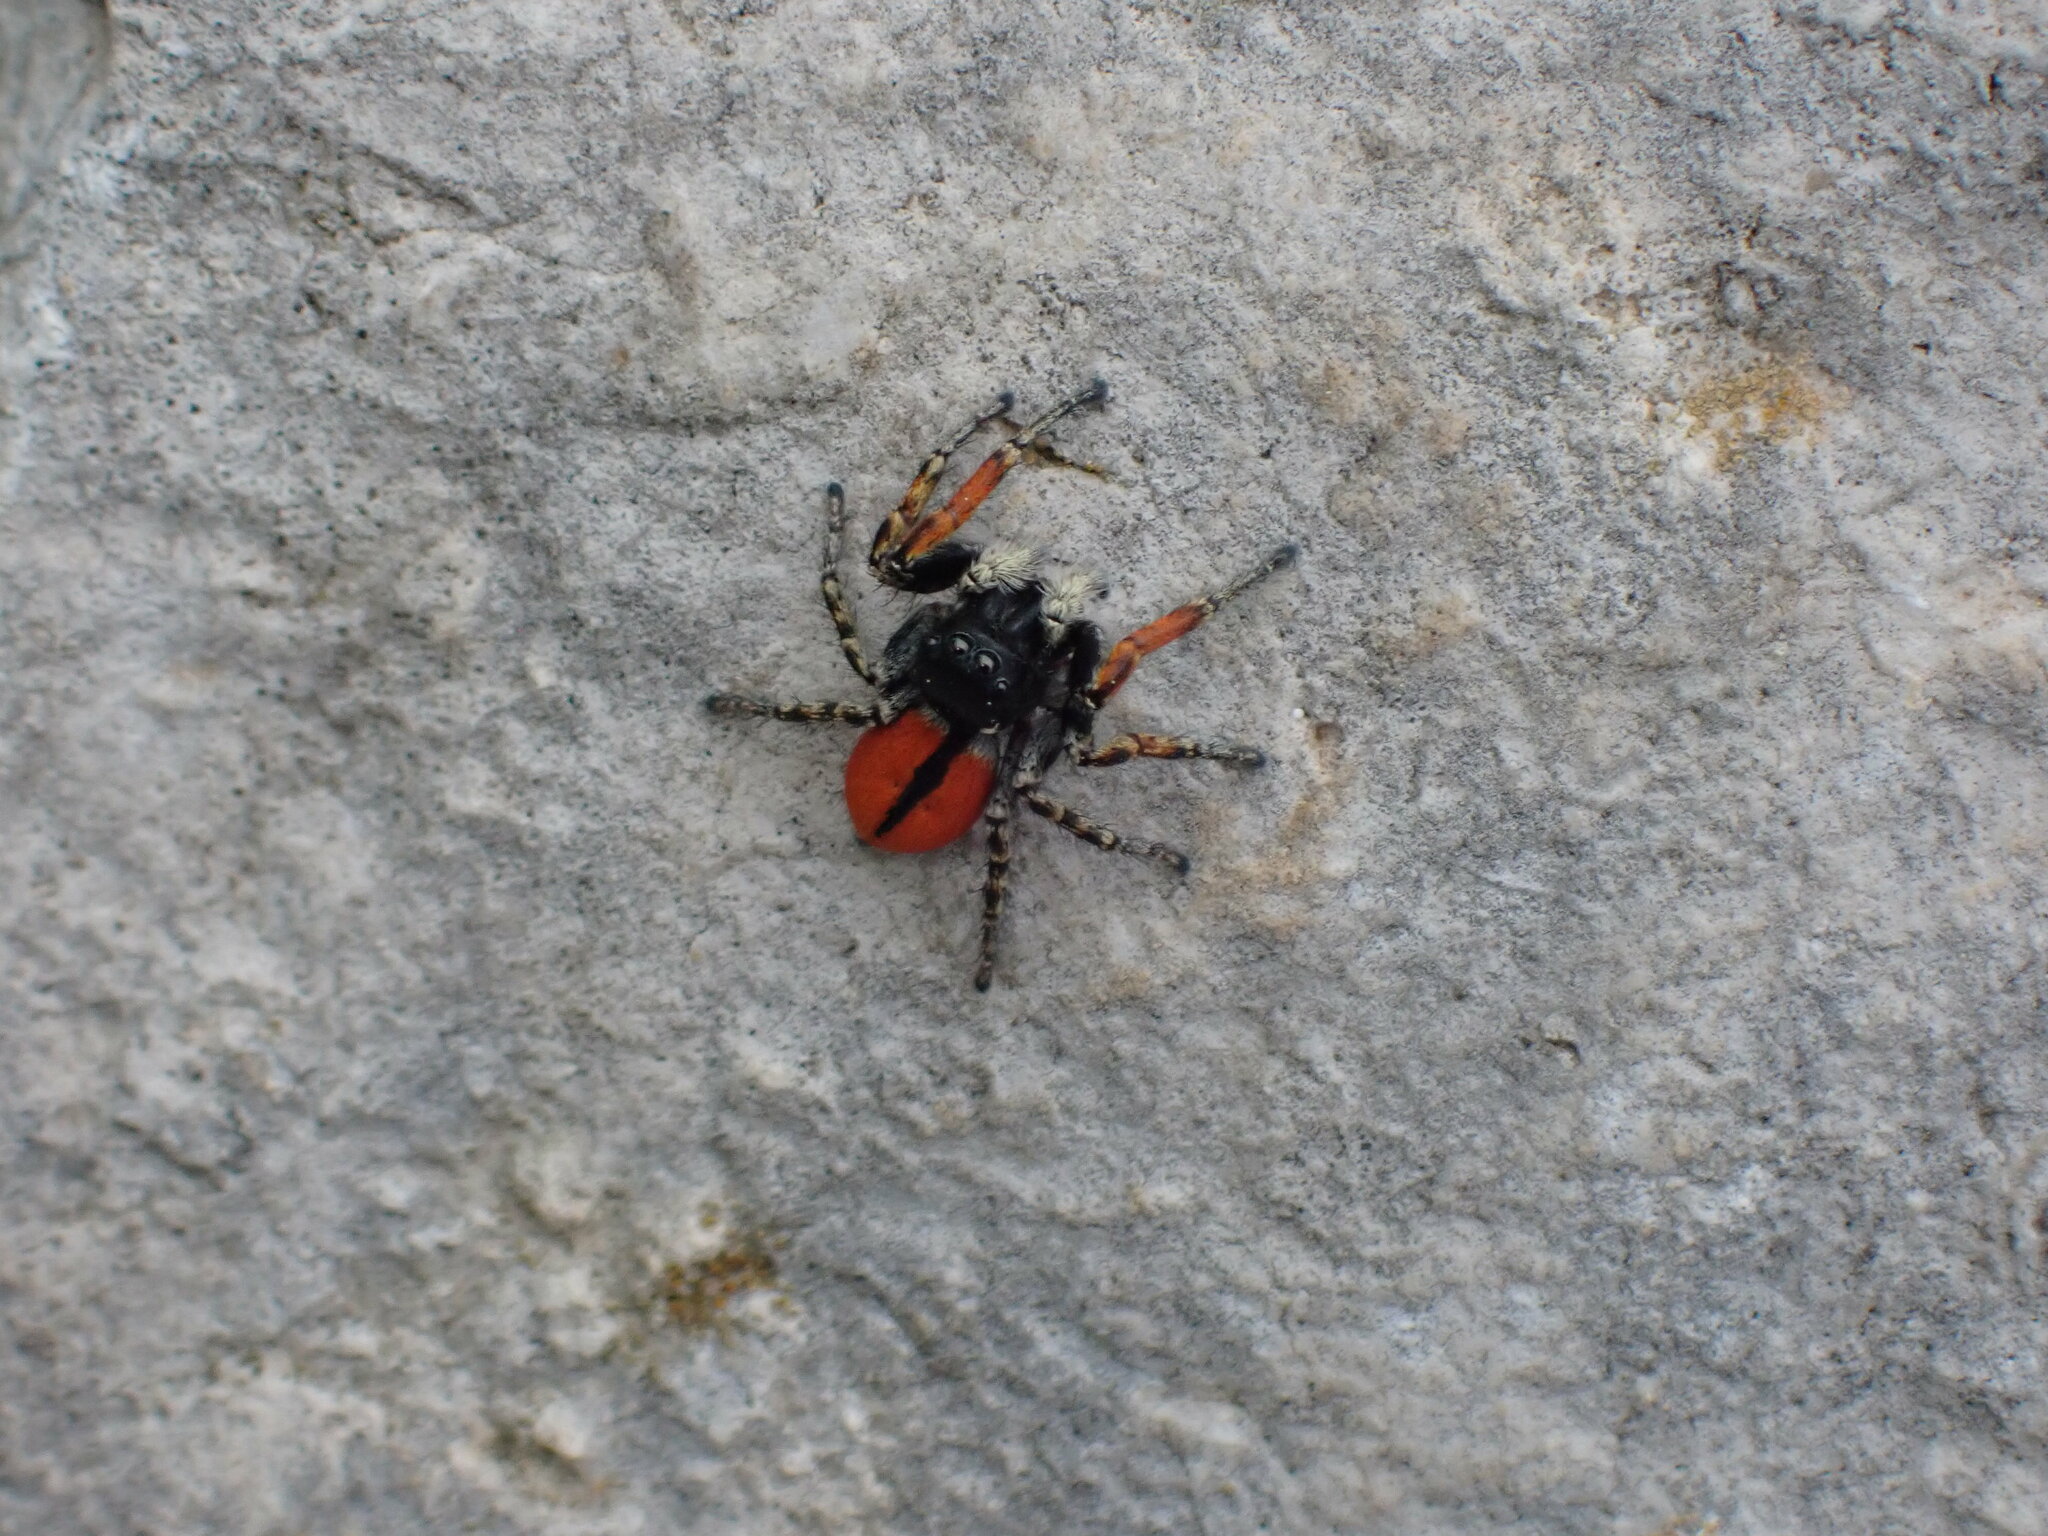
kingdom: Animalia
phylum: Arthropoda
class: Arachnida
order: Araneae
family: Salticidae
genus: Philaeus
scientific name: Philaeus chrysops
